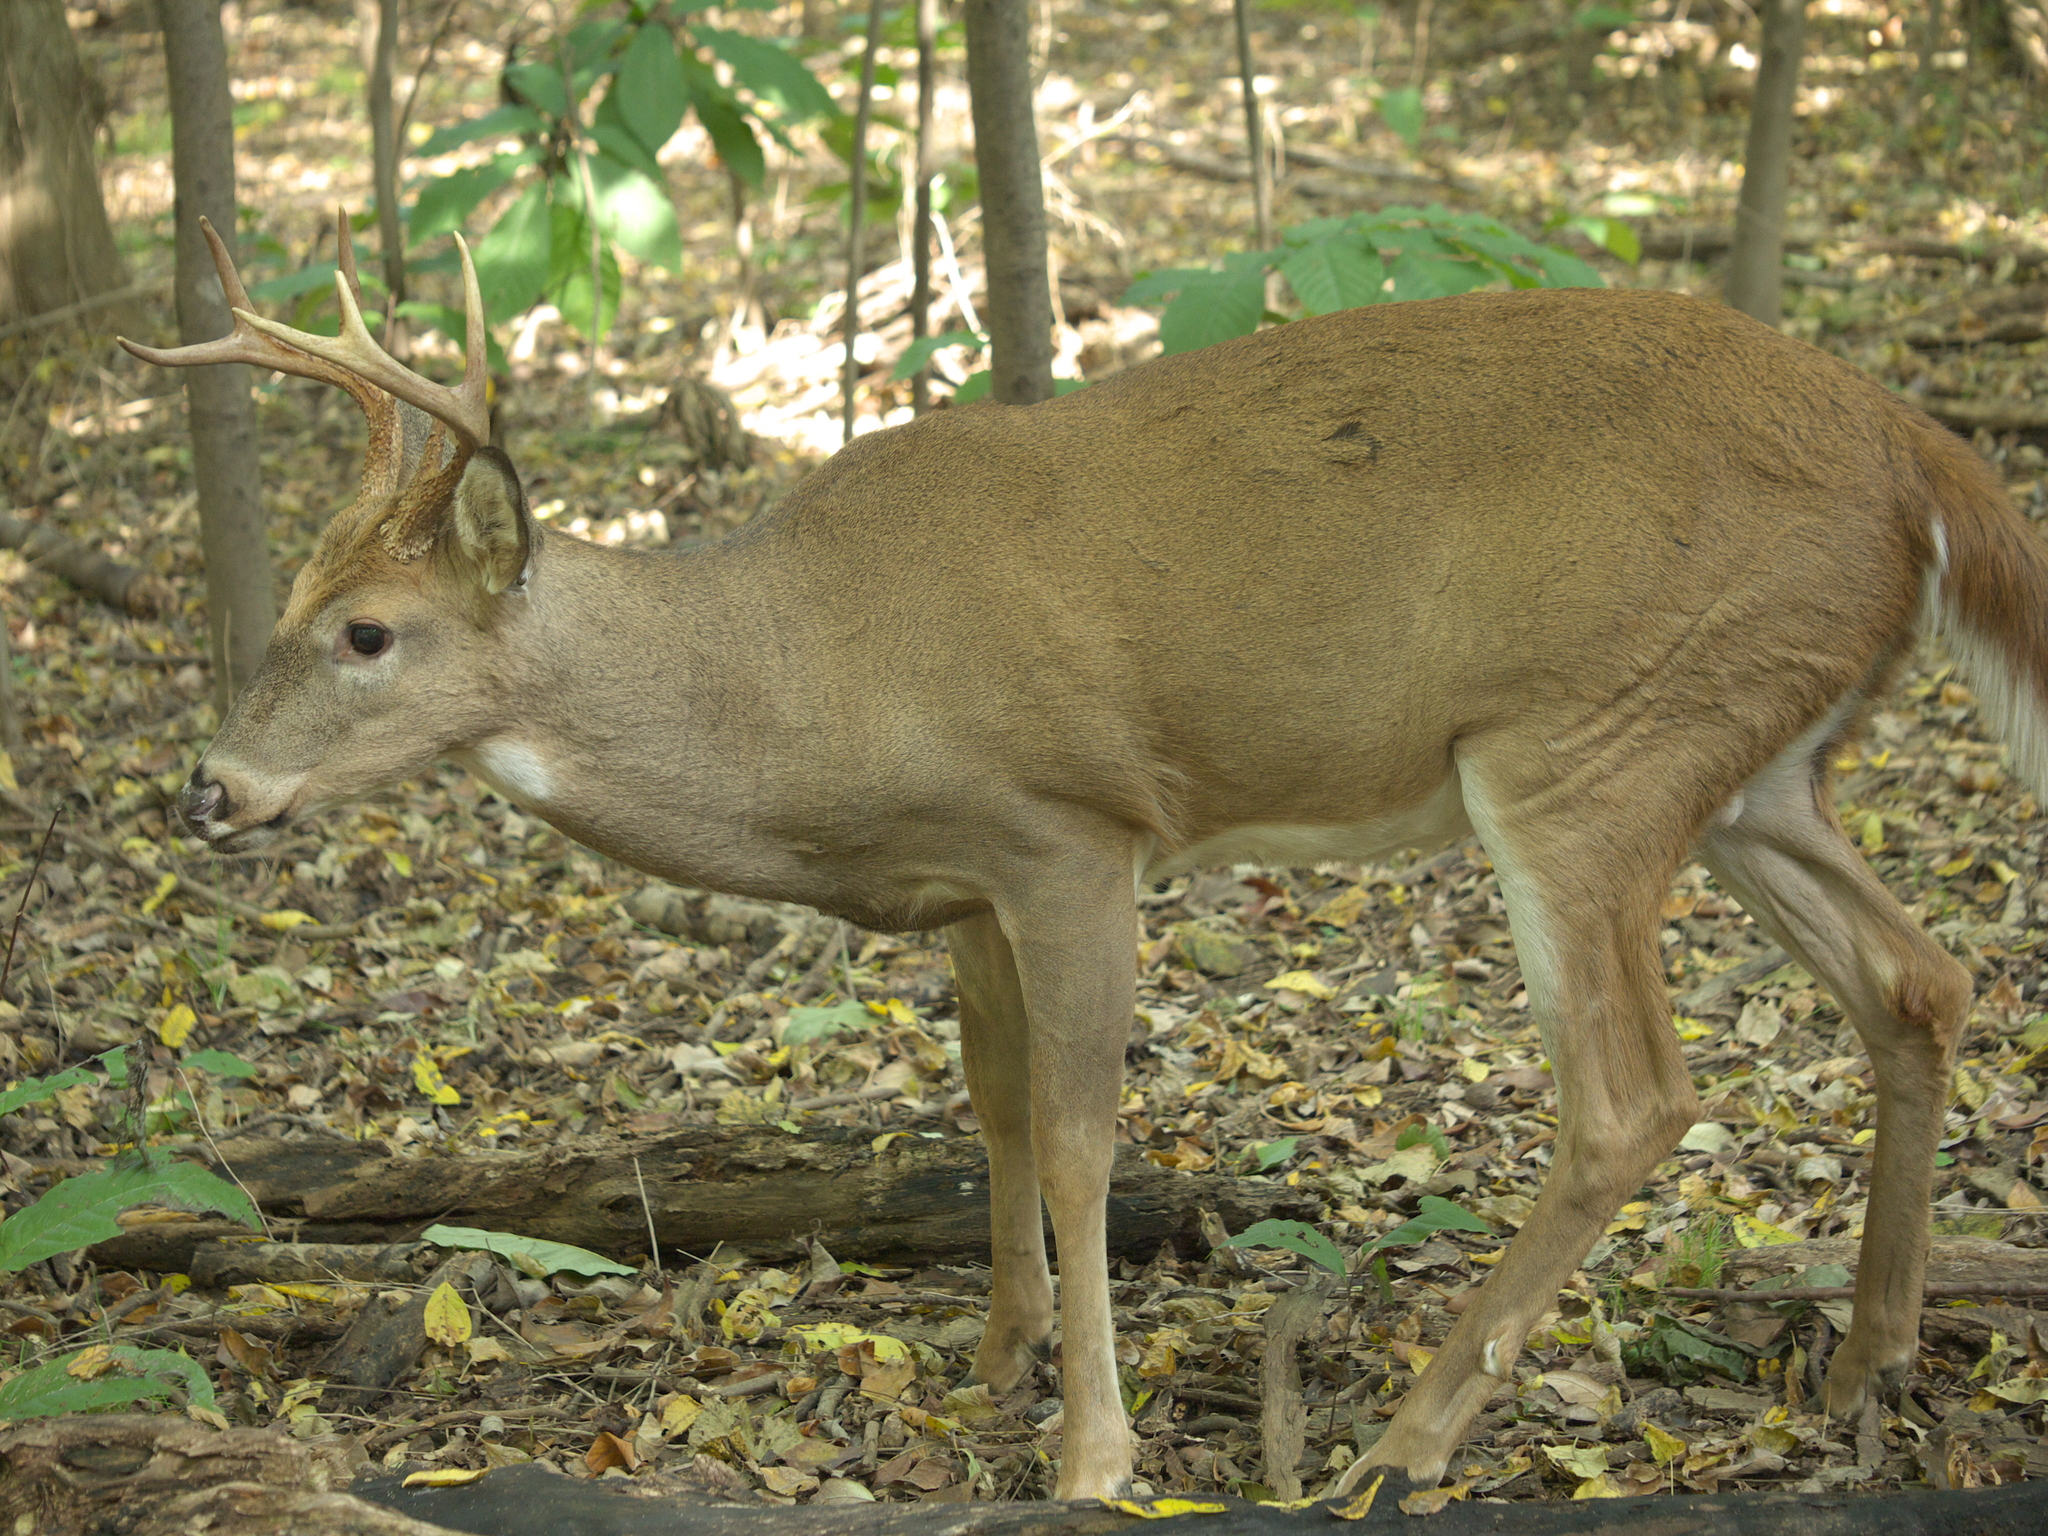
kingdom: Animalia
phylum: Chordata
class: Mammalia
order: Artiodactyla
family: Cervidae
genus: Odocoileus
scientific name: Odocoileus virginianus
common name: White-tailed deer
